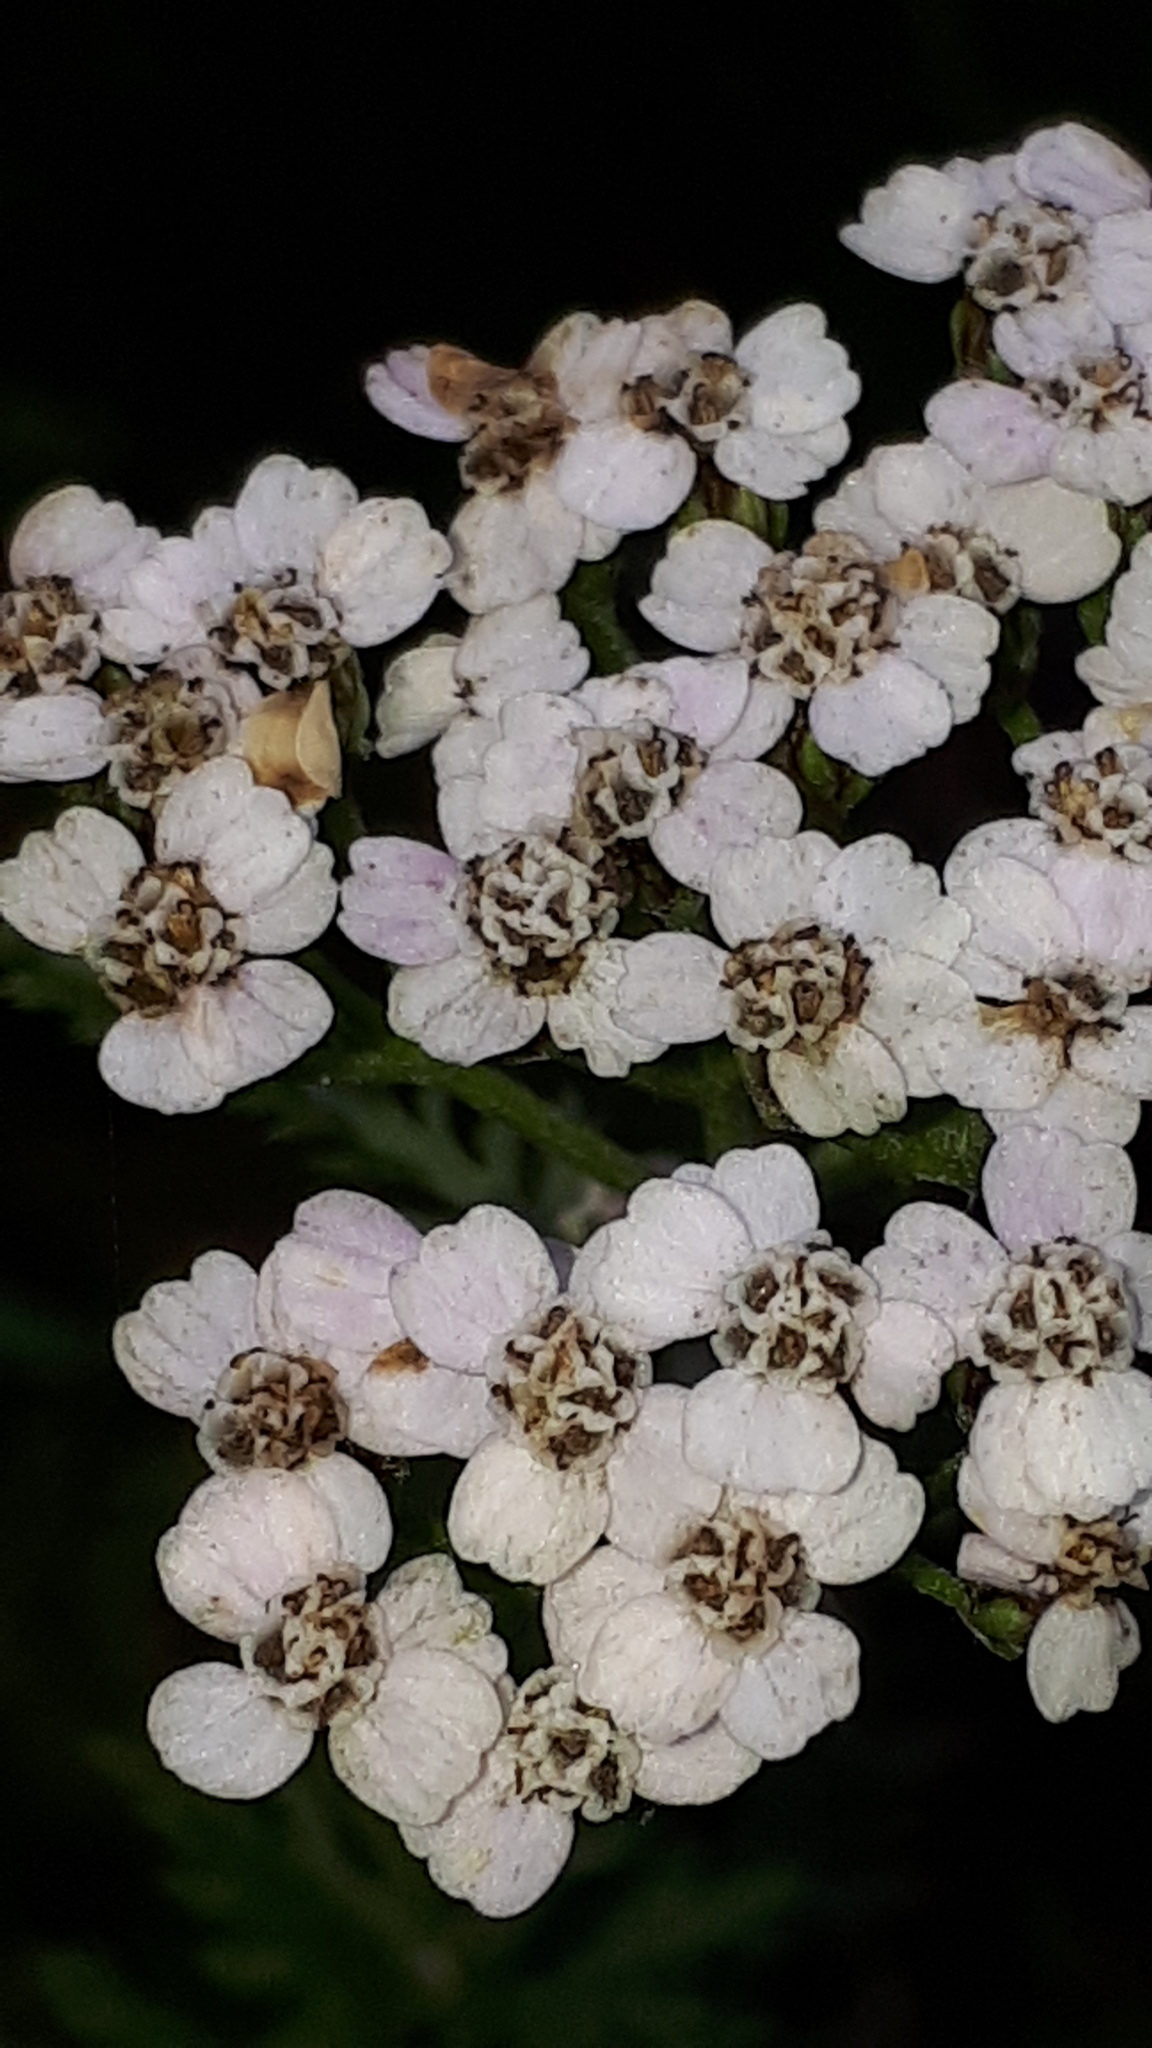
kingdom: Plantae
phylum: Tracheophyta
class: Magnoliopsida
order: Asterales
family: Asteraceae
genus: Achillea
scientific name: Achillea millefolium
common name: Yarrow
